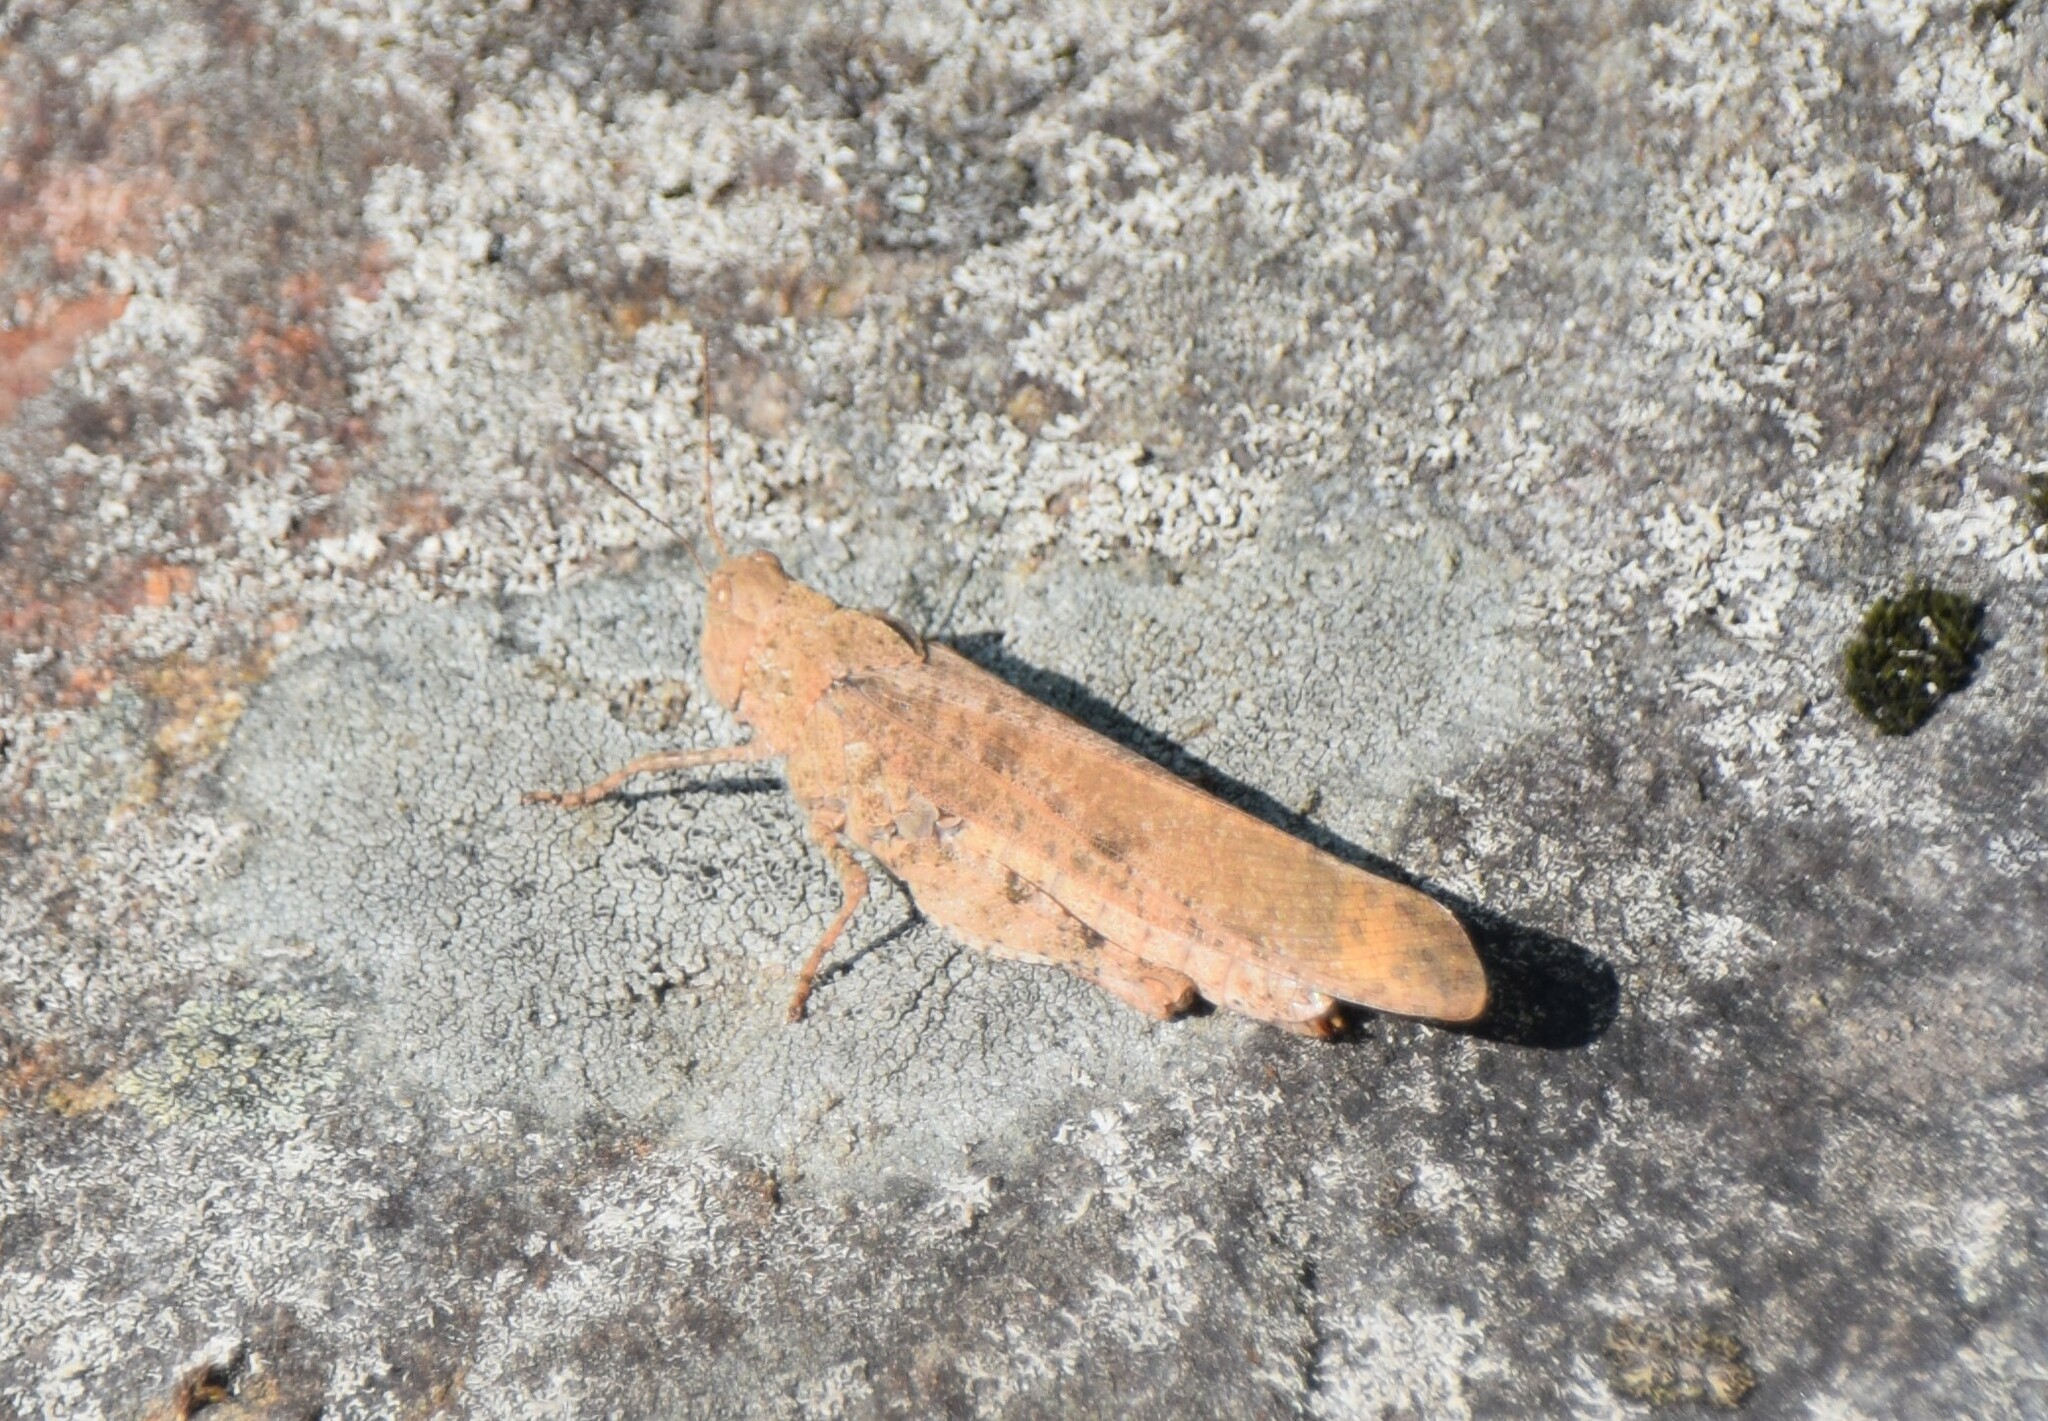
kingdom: Animalia
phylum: Arthropoda
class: Insecta
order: Orthoptera
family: Acrididae
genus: Dissosteira
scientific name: Dissosteira carolina
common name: Carolina grasshopper
